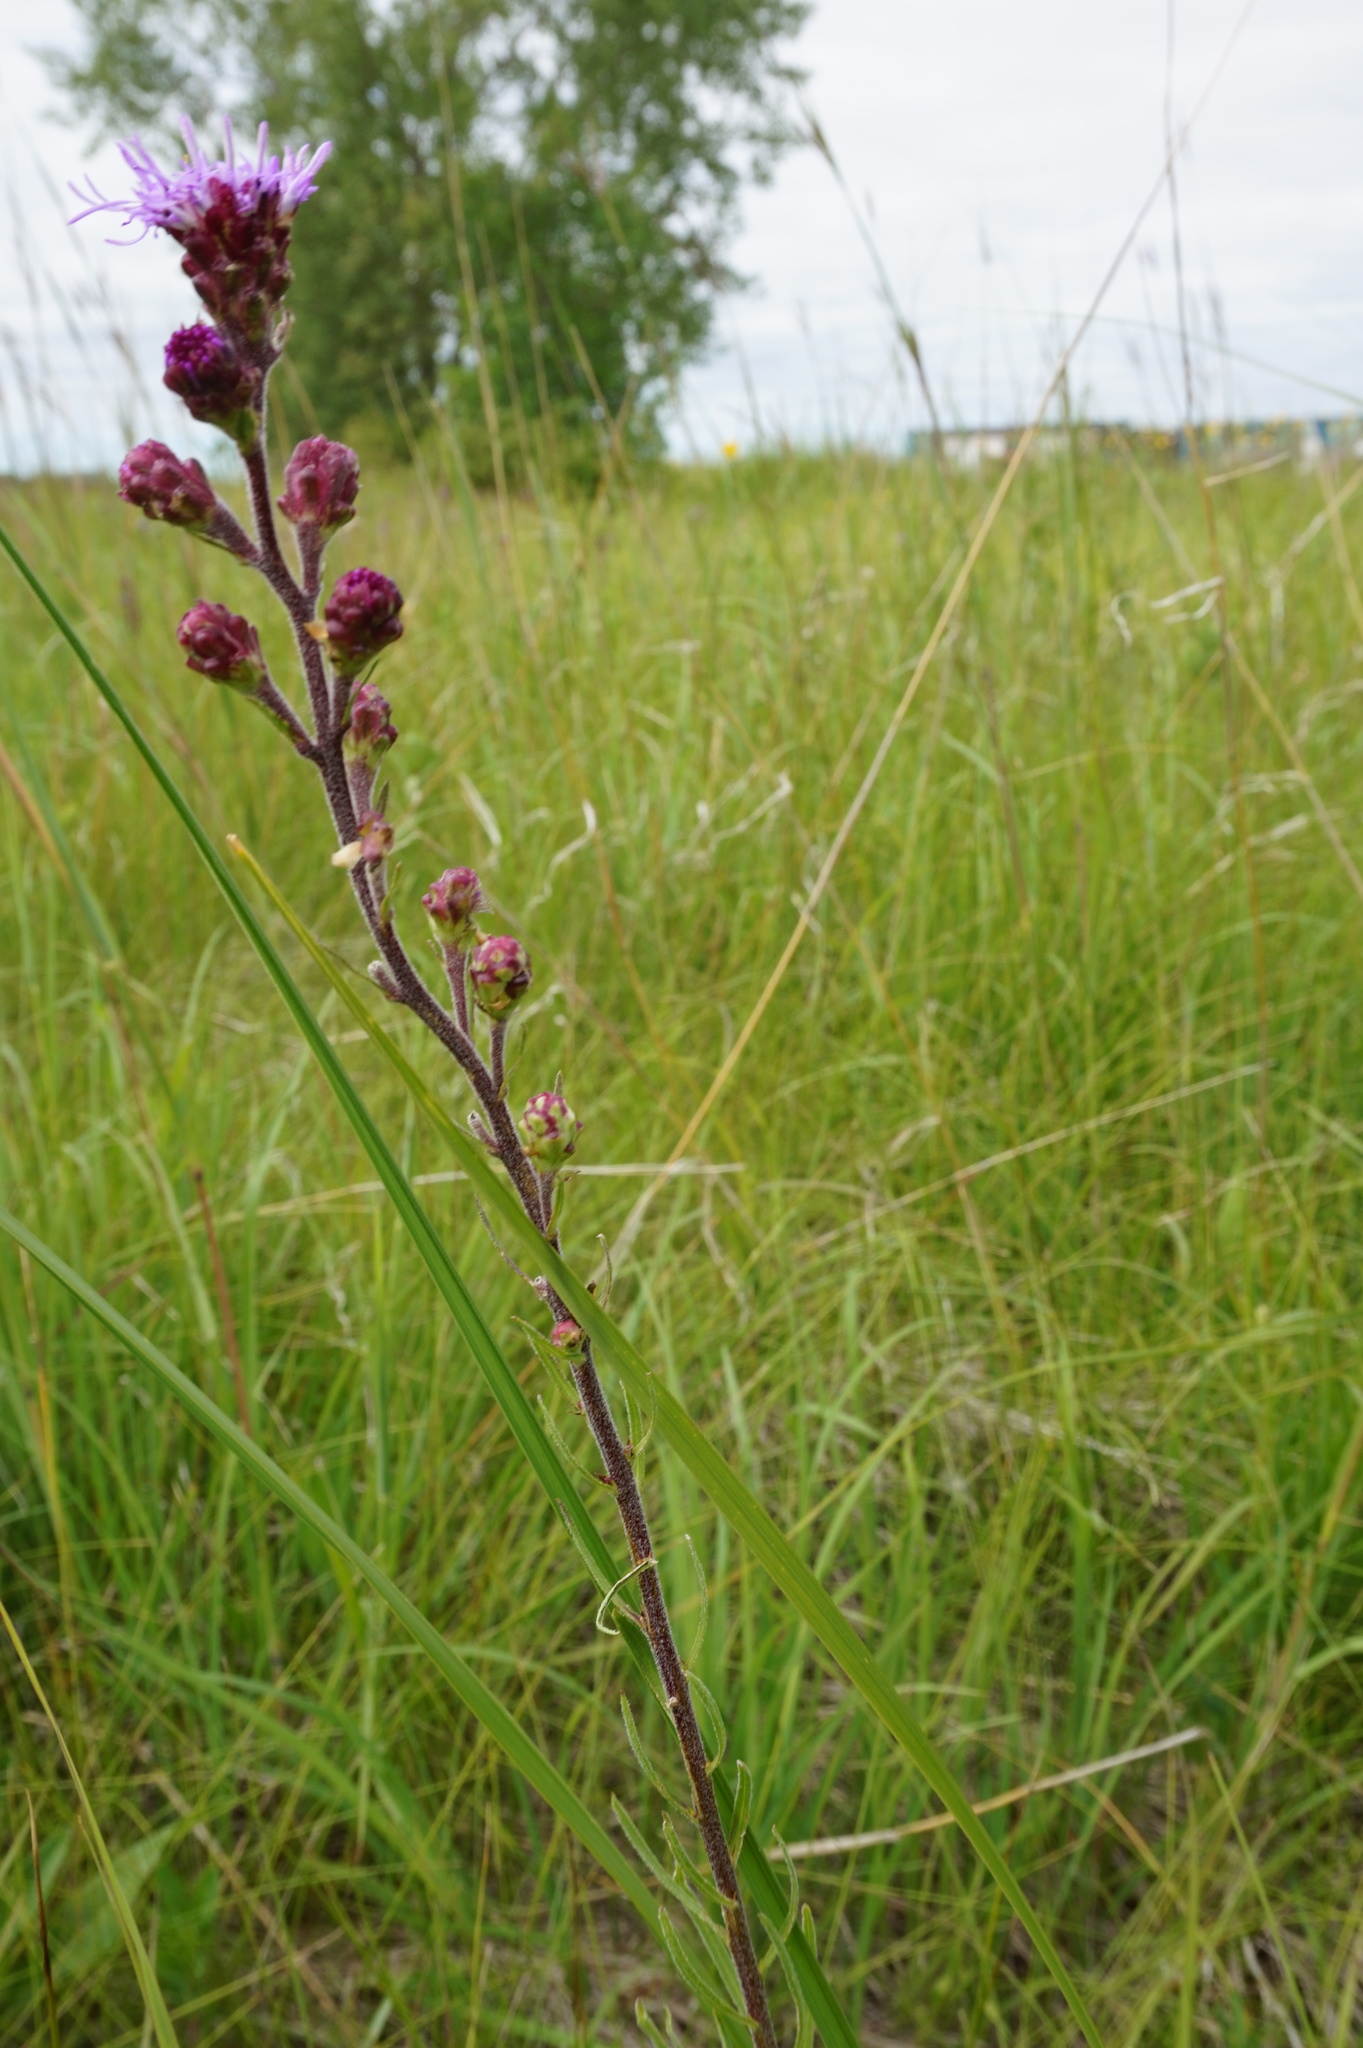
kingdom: Plantae
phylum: Tracheophyta
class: Magnoliopsida
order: Asterales
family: Asteraceae
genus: Liatris
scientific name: Liatris ligulistylis
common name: Northern plains gayfeather
